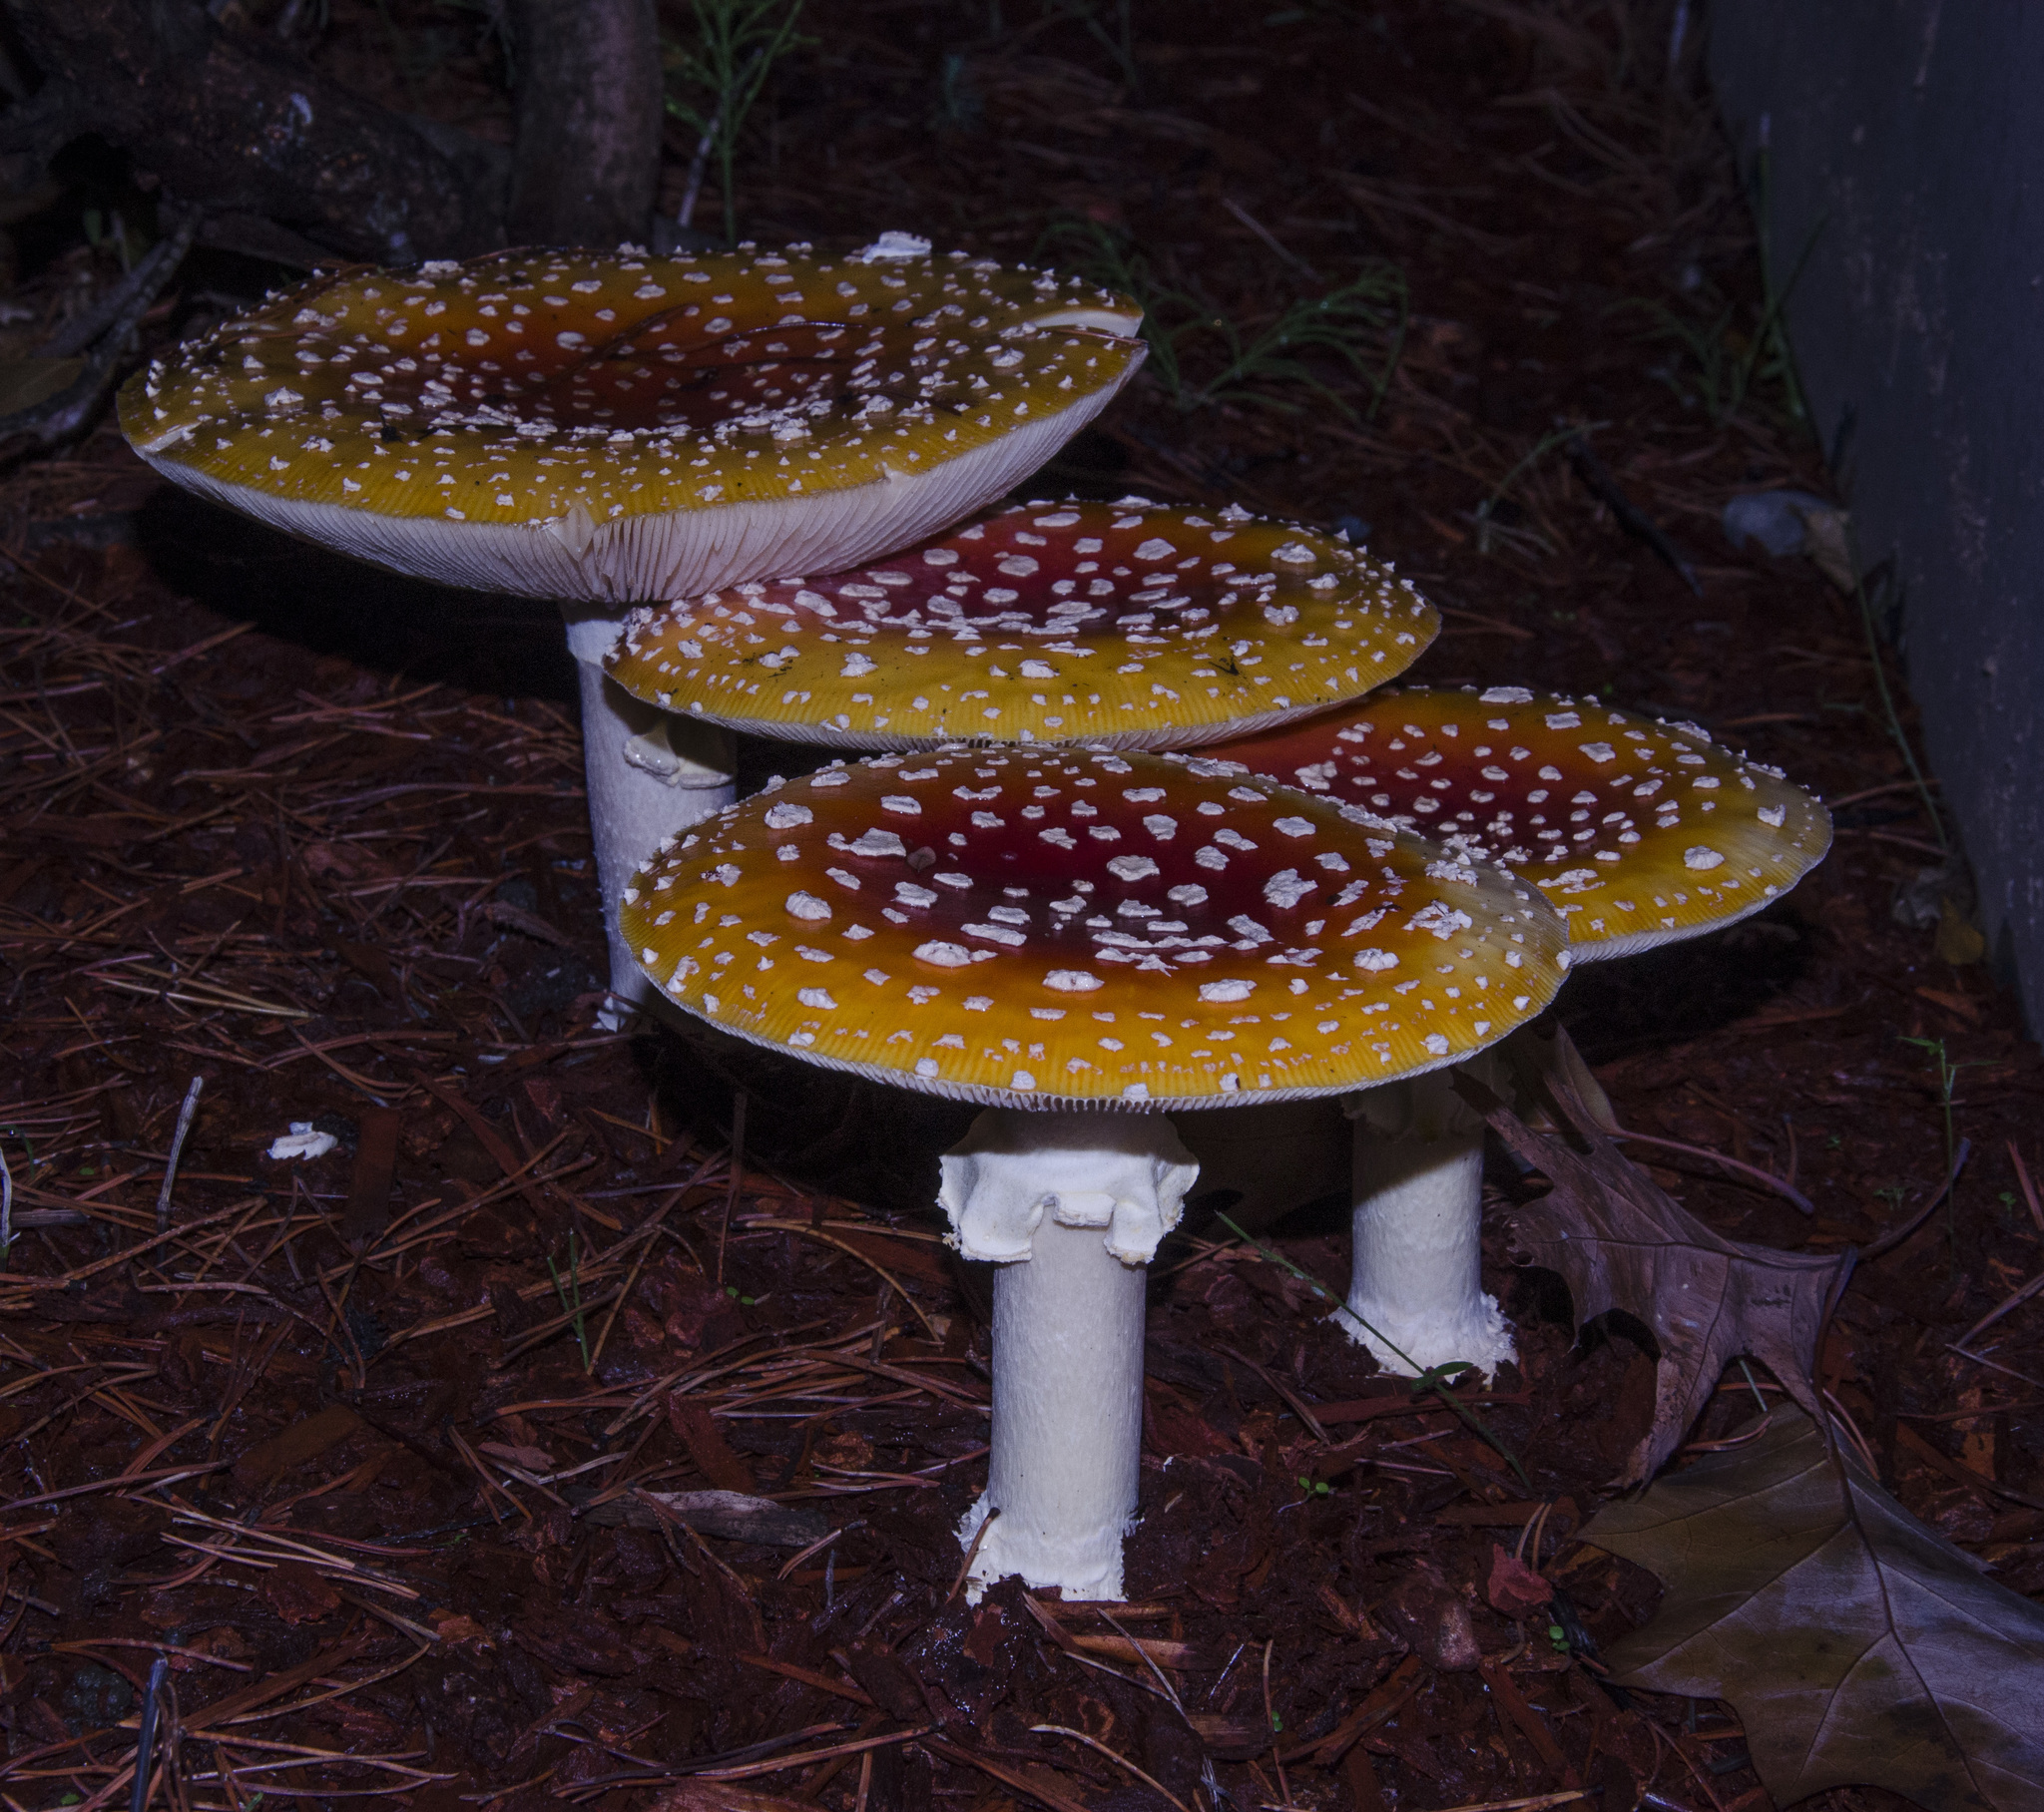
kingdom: Fungi
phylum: Basidiomycota
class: Agaricomycetes
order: Agaricales
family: Amanitaceae
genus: Amanita
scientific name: Amanita muscaria
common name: Fly agaric
